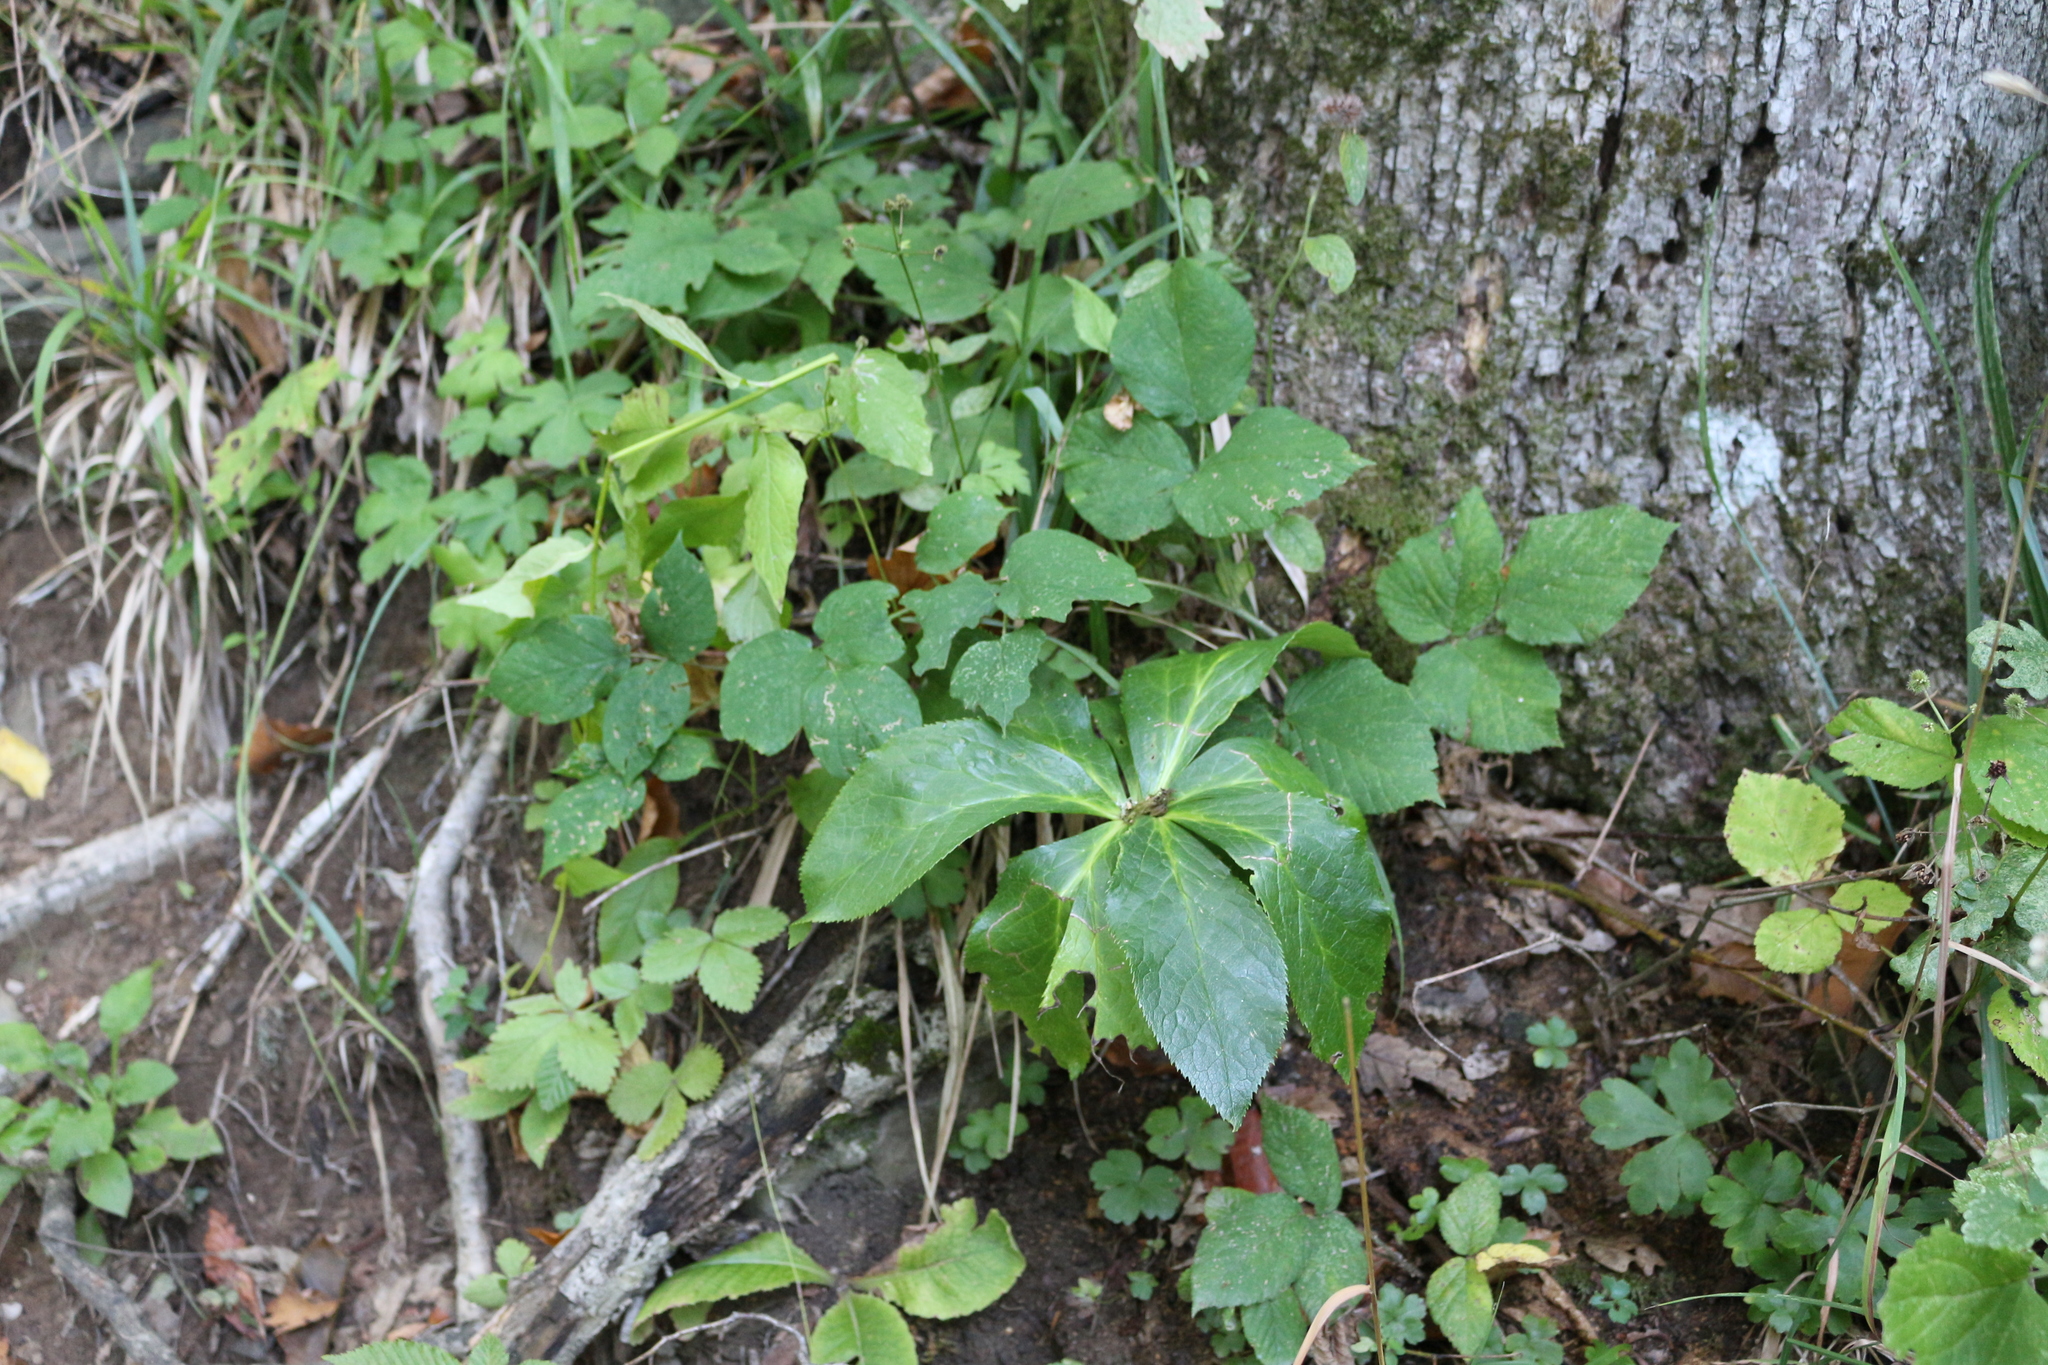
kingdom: Plantae
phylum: Tracheophyta
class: Magnoliopsida
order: Ranunculales
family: Ranunculaceae
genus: Helleborus
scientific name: Helleborus orientalis
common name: Lenten-rose
